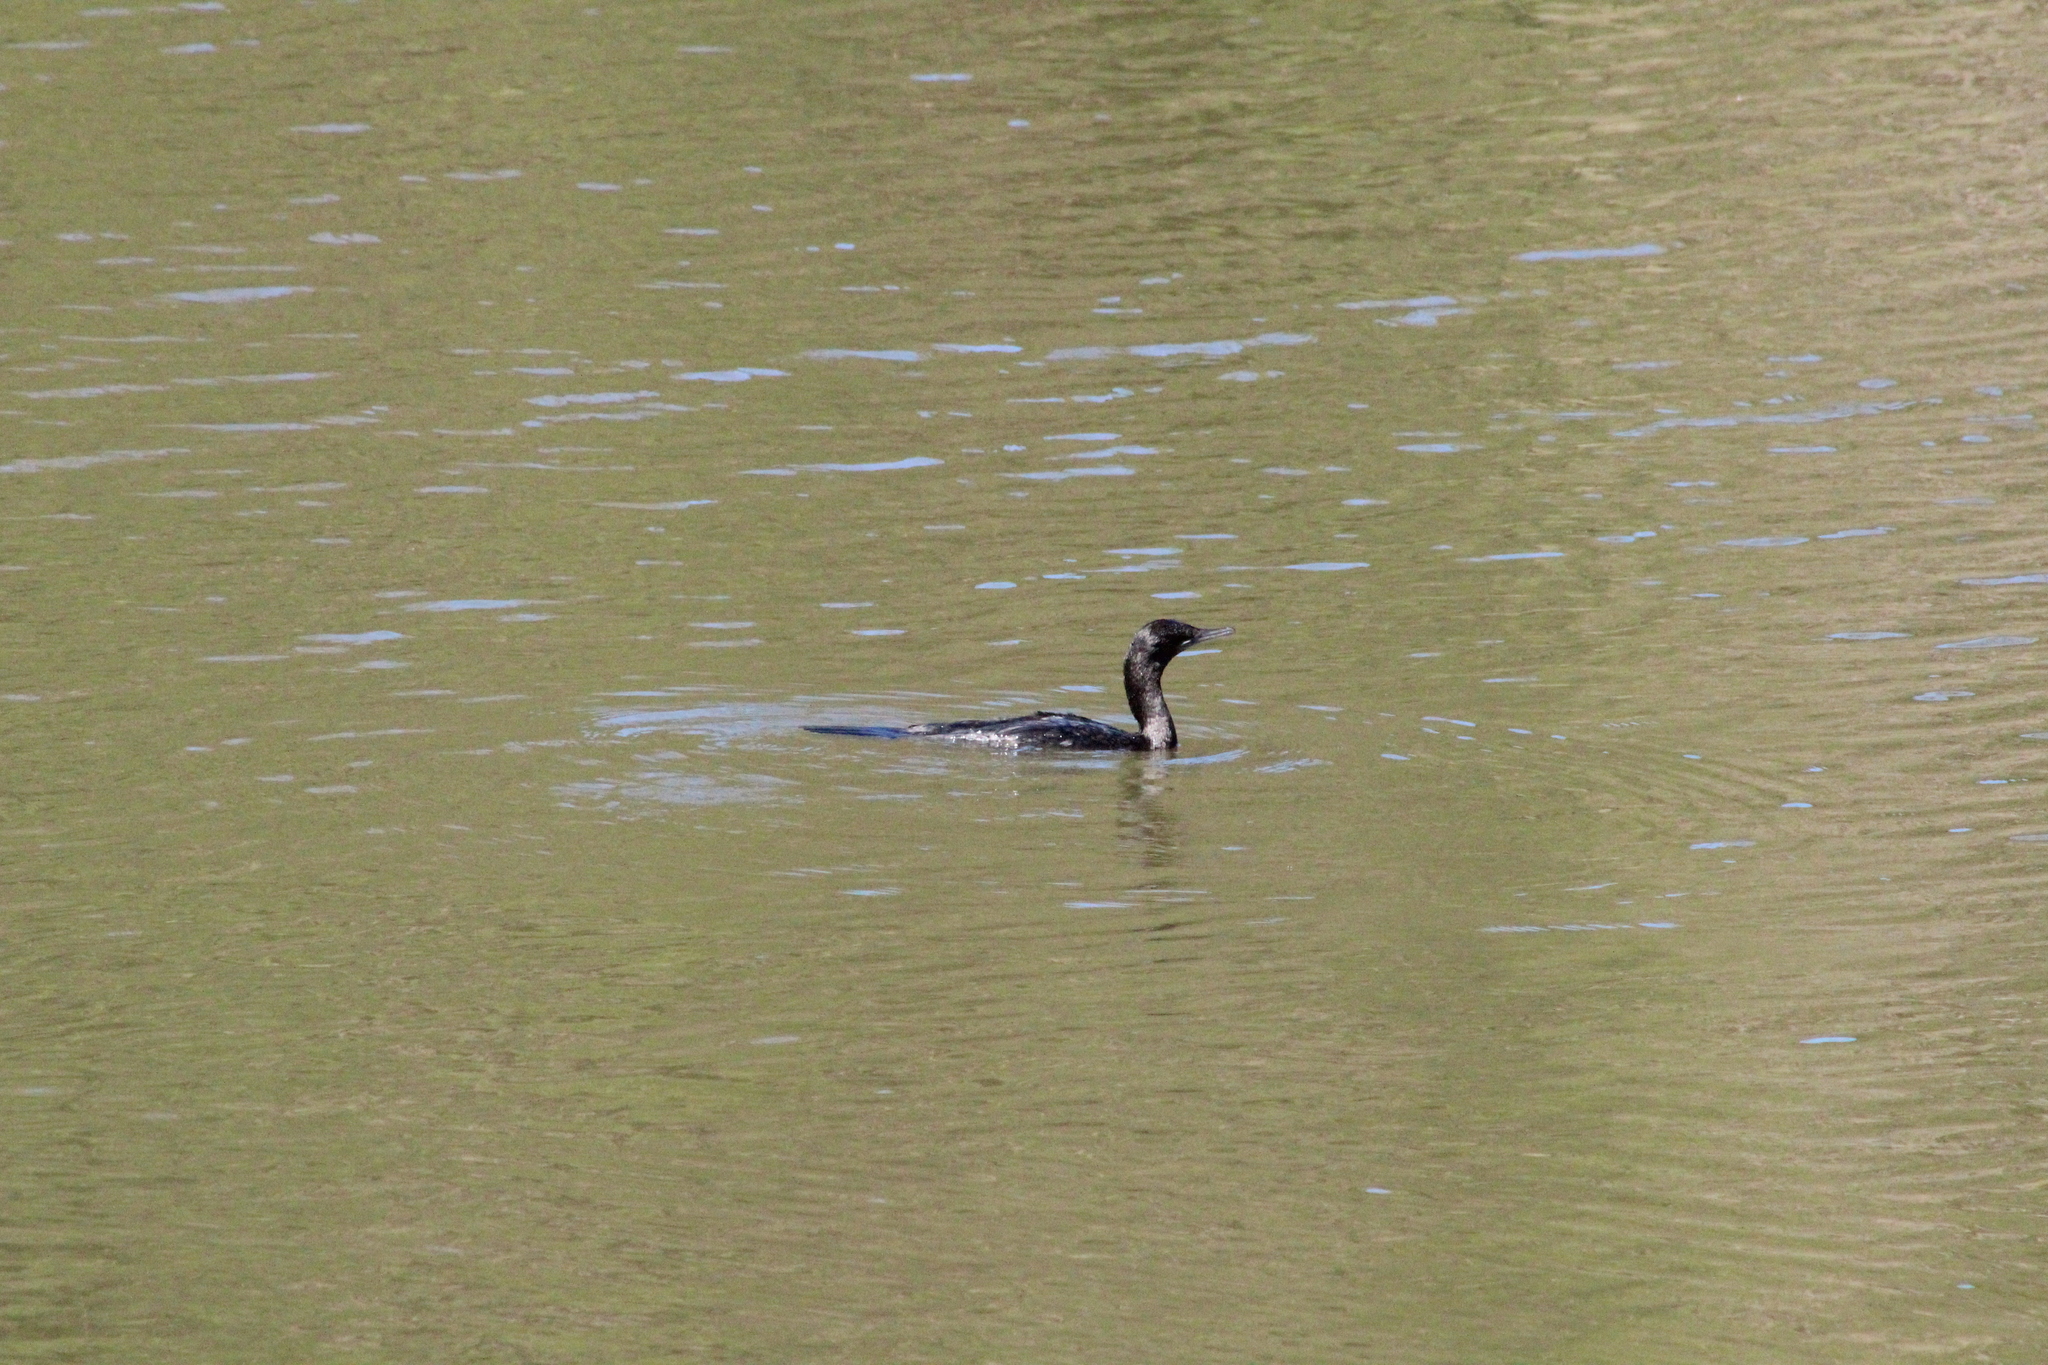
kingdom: Animalia
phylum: Chordata
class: Aves
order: Suliformes
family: Phalacrocoracidae
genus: Phalacrocorax
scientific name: Phalacrocorax sulcirostris
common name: Little black cormorant
